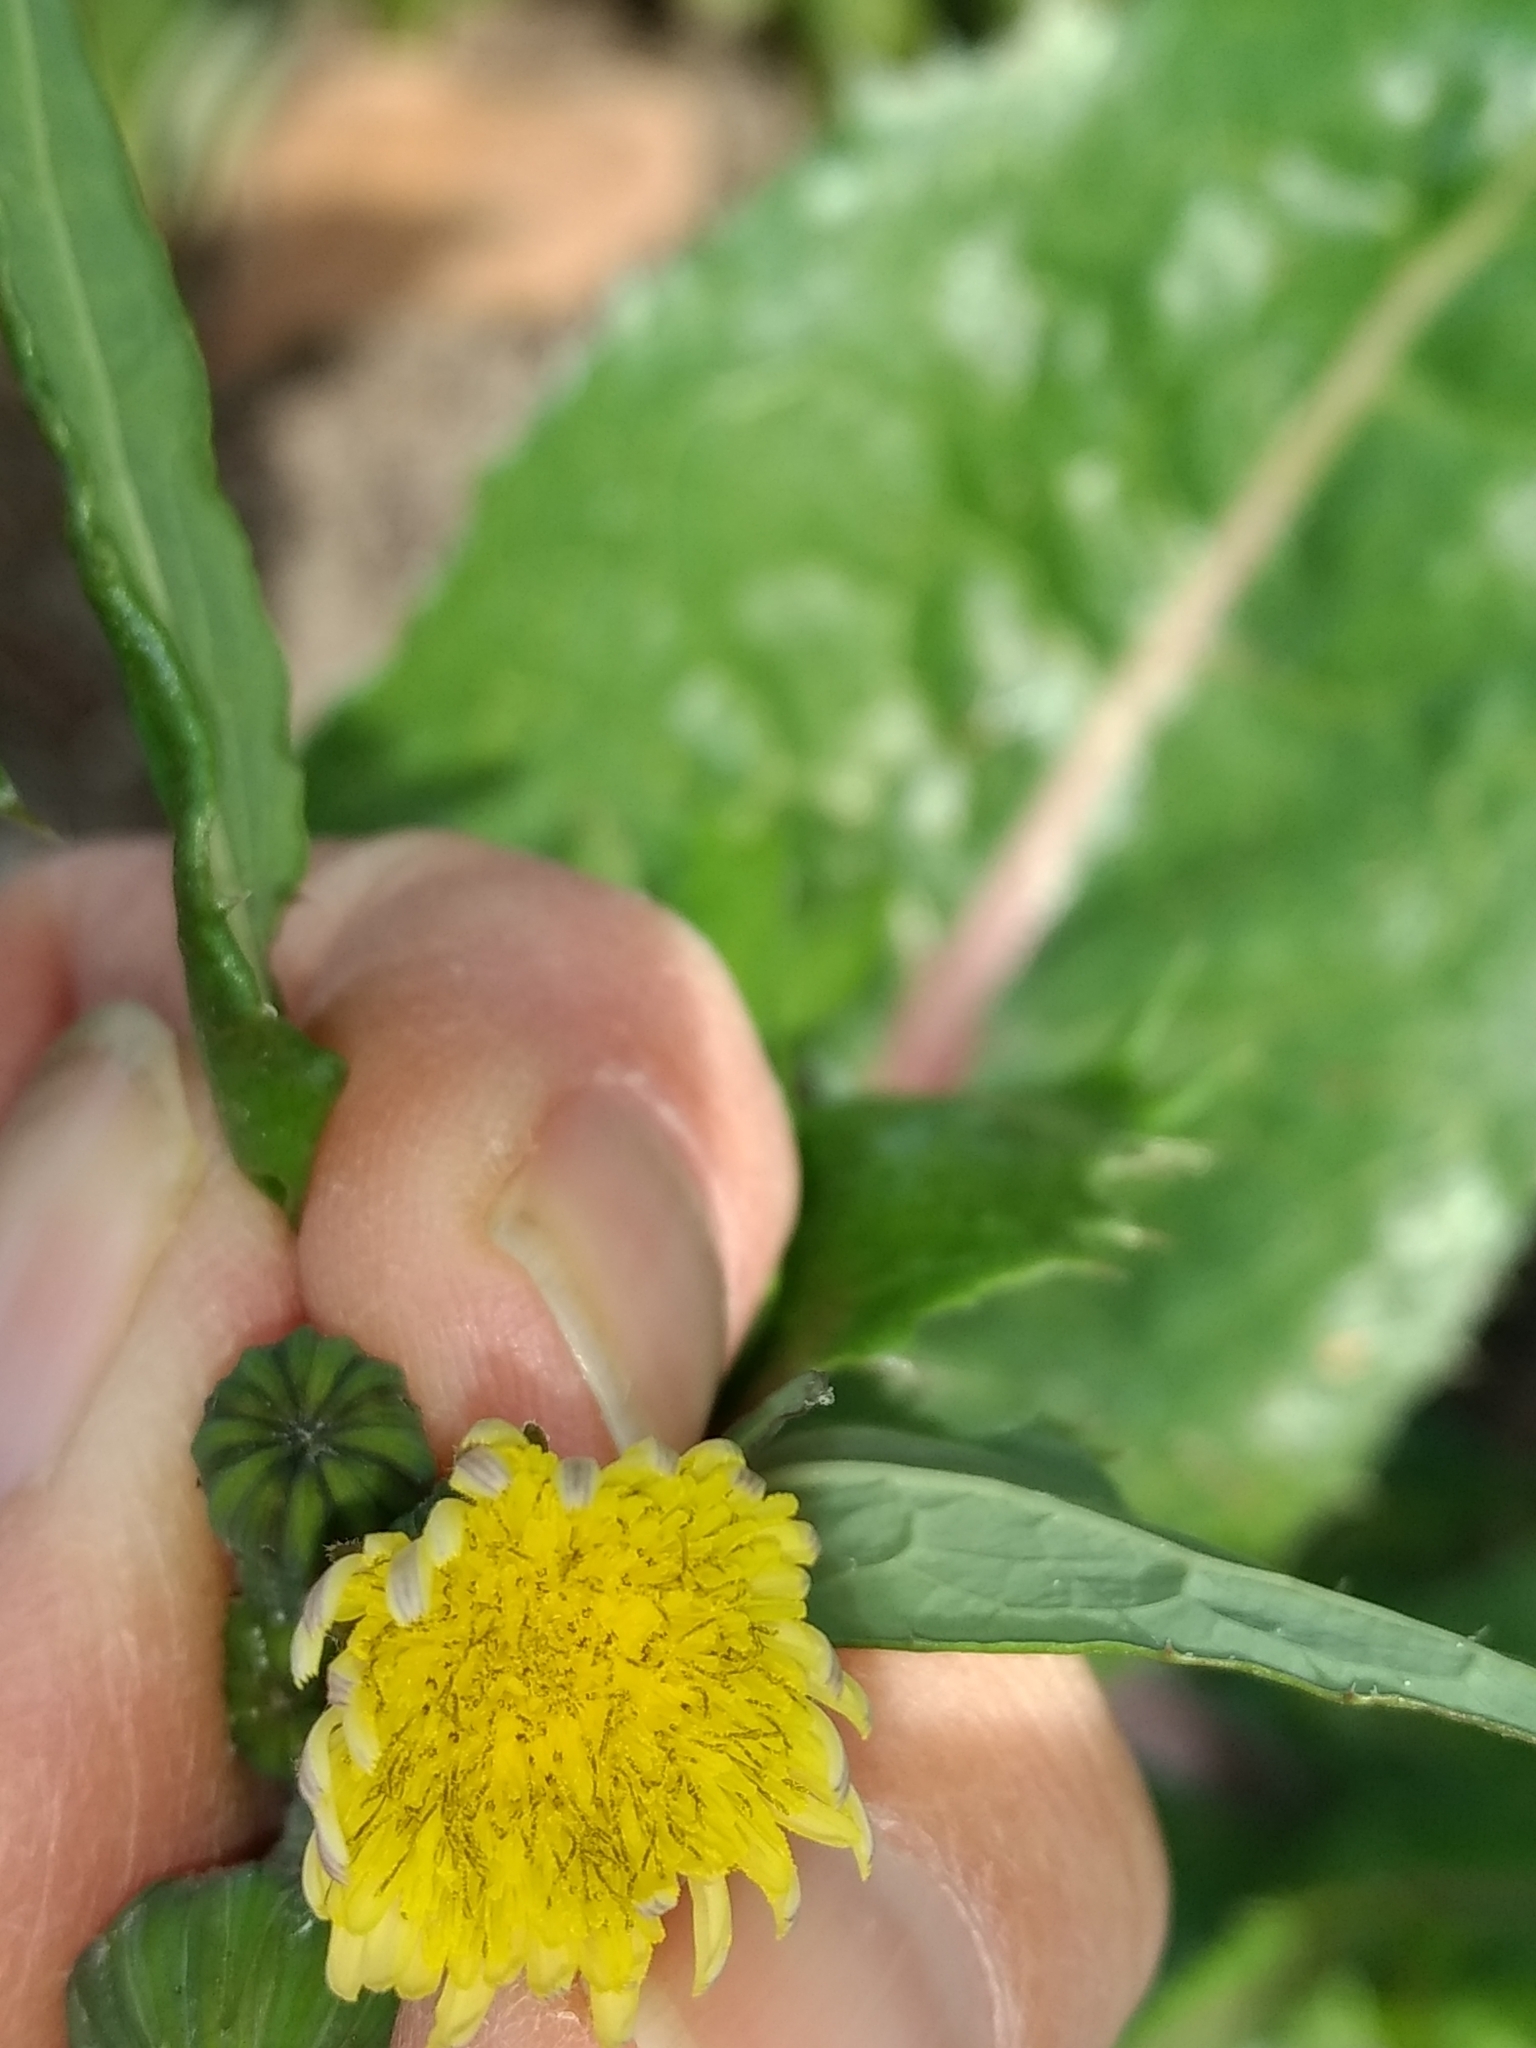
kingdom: Plantae
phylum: Tracheophyta
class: Magnoliopsida
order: Asterales
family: Asteraceae
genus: Sonchus
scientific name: Sonchus oleraceus
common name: Common sowthistle
